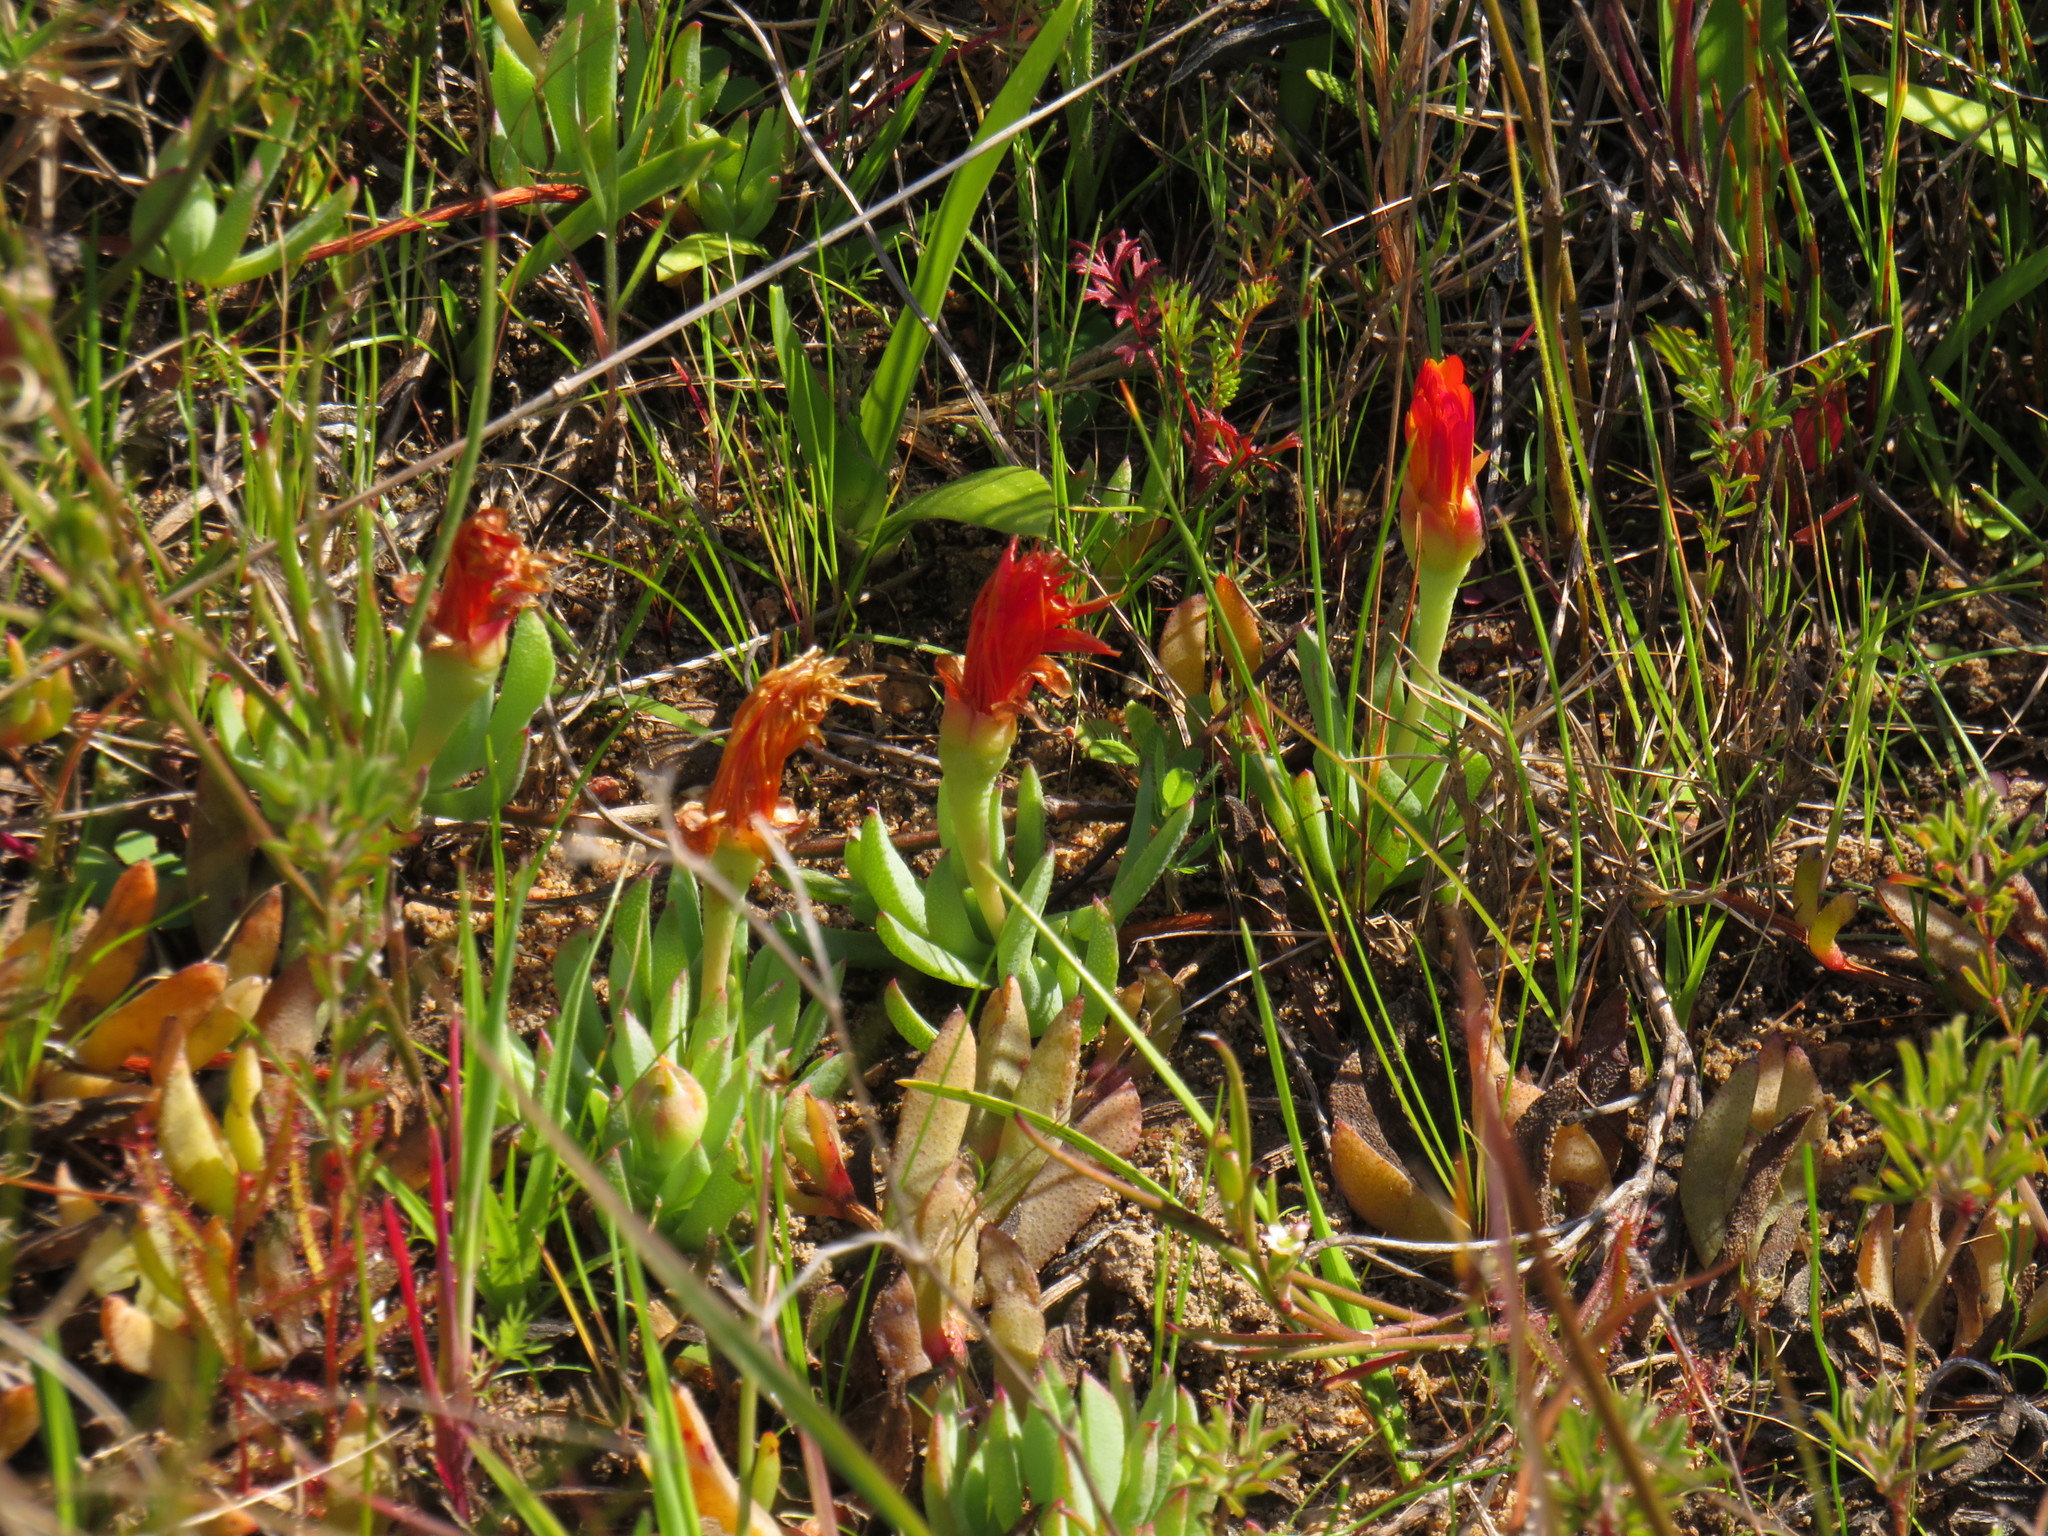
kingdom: Plantae
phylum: Tracheophyta
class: Magnoliopsida
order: Caryophyllales
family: Aizoaceae
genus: Lampranthus
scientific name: Lampranthus reptans
